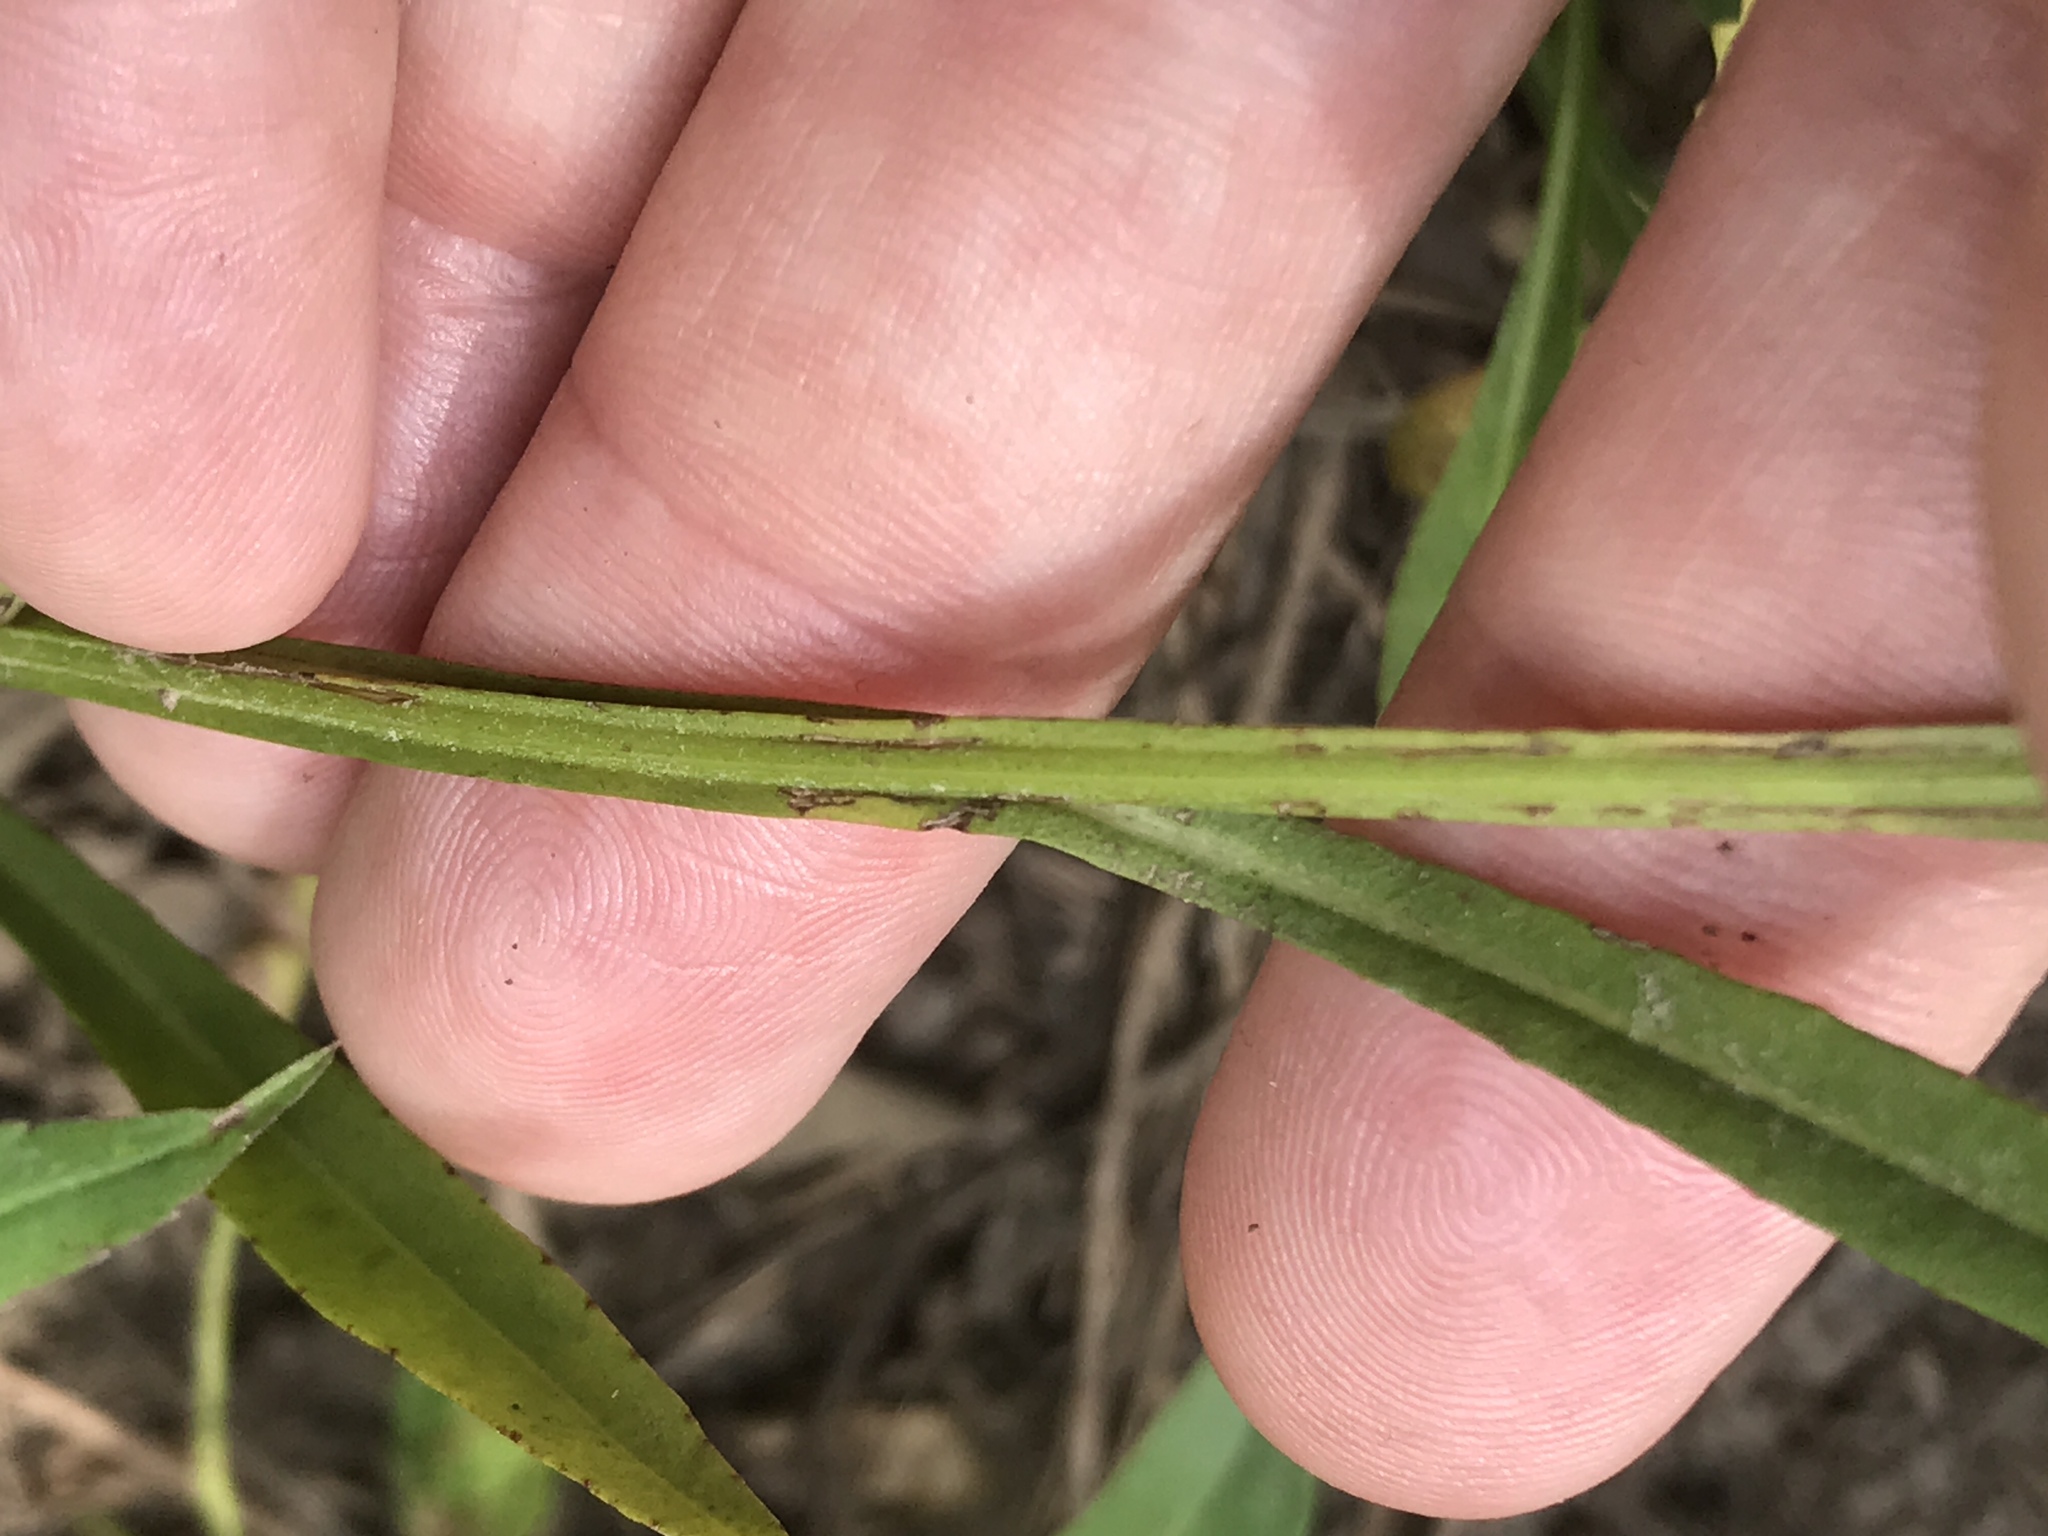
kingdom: Plantae
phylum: Tracheophyta
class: Magnoliopsida
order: Asterales
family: Asteraceae
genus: Helenium
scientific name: Helenium autumnale
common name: Sneezeweed
